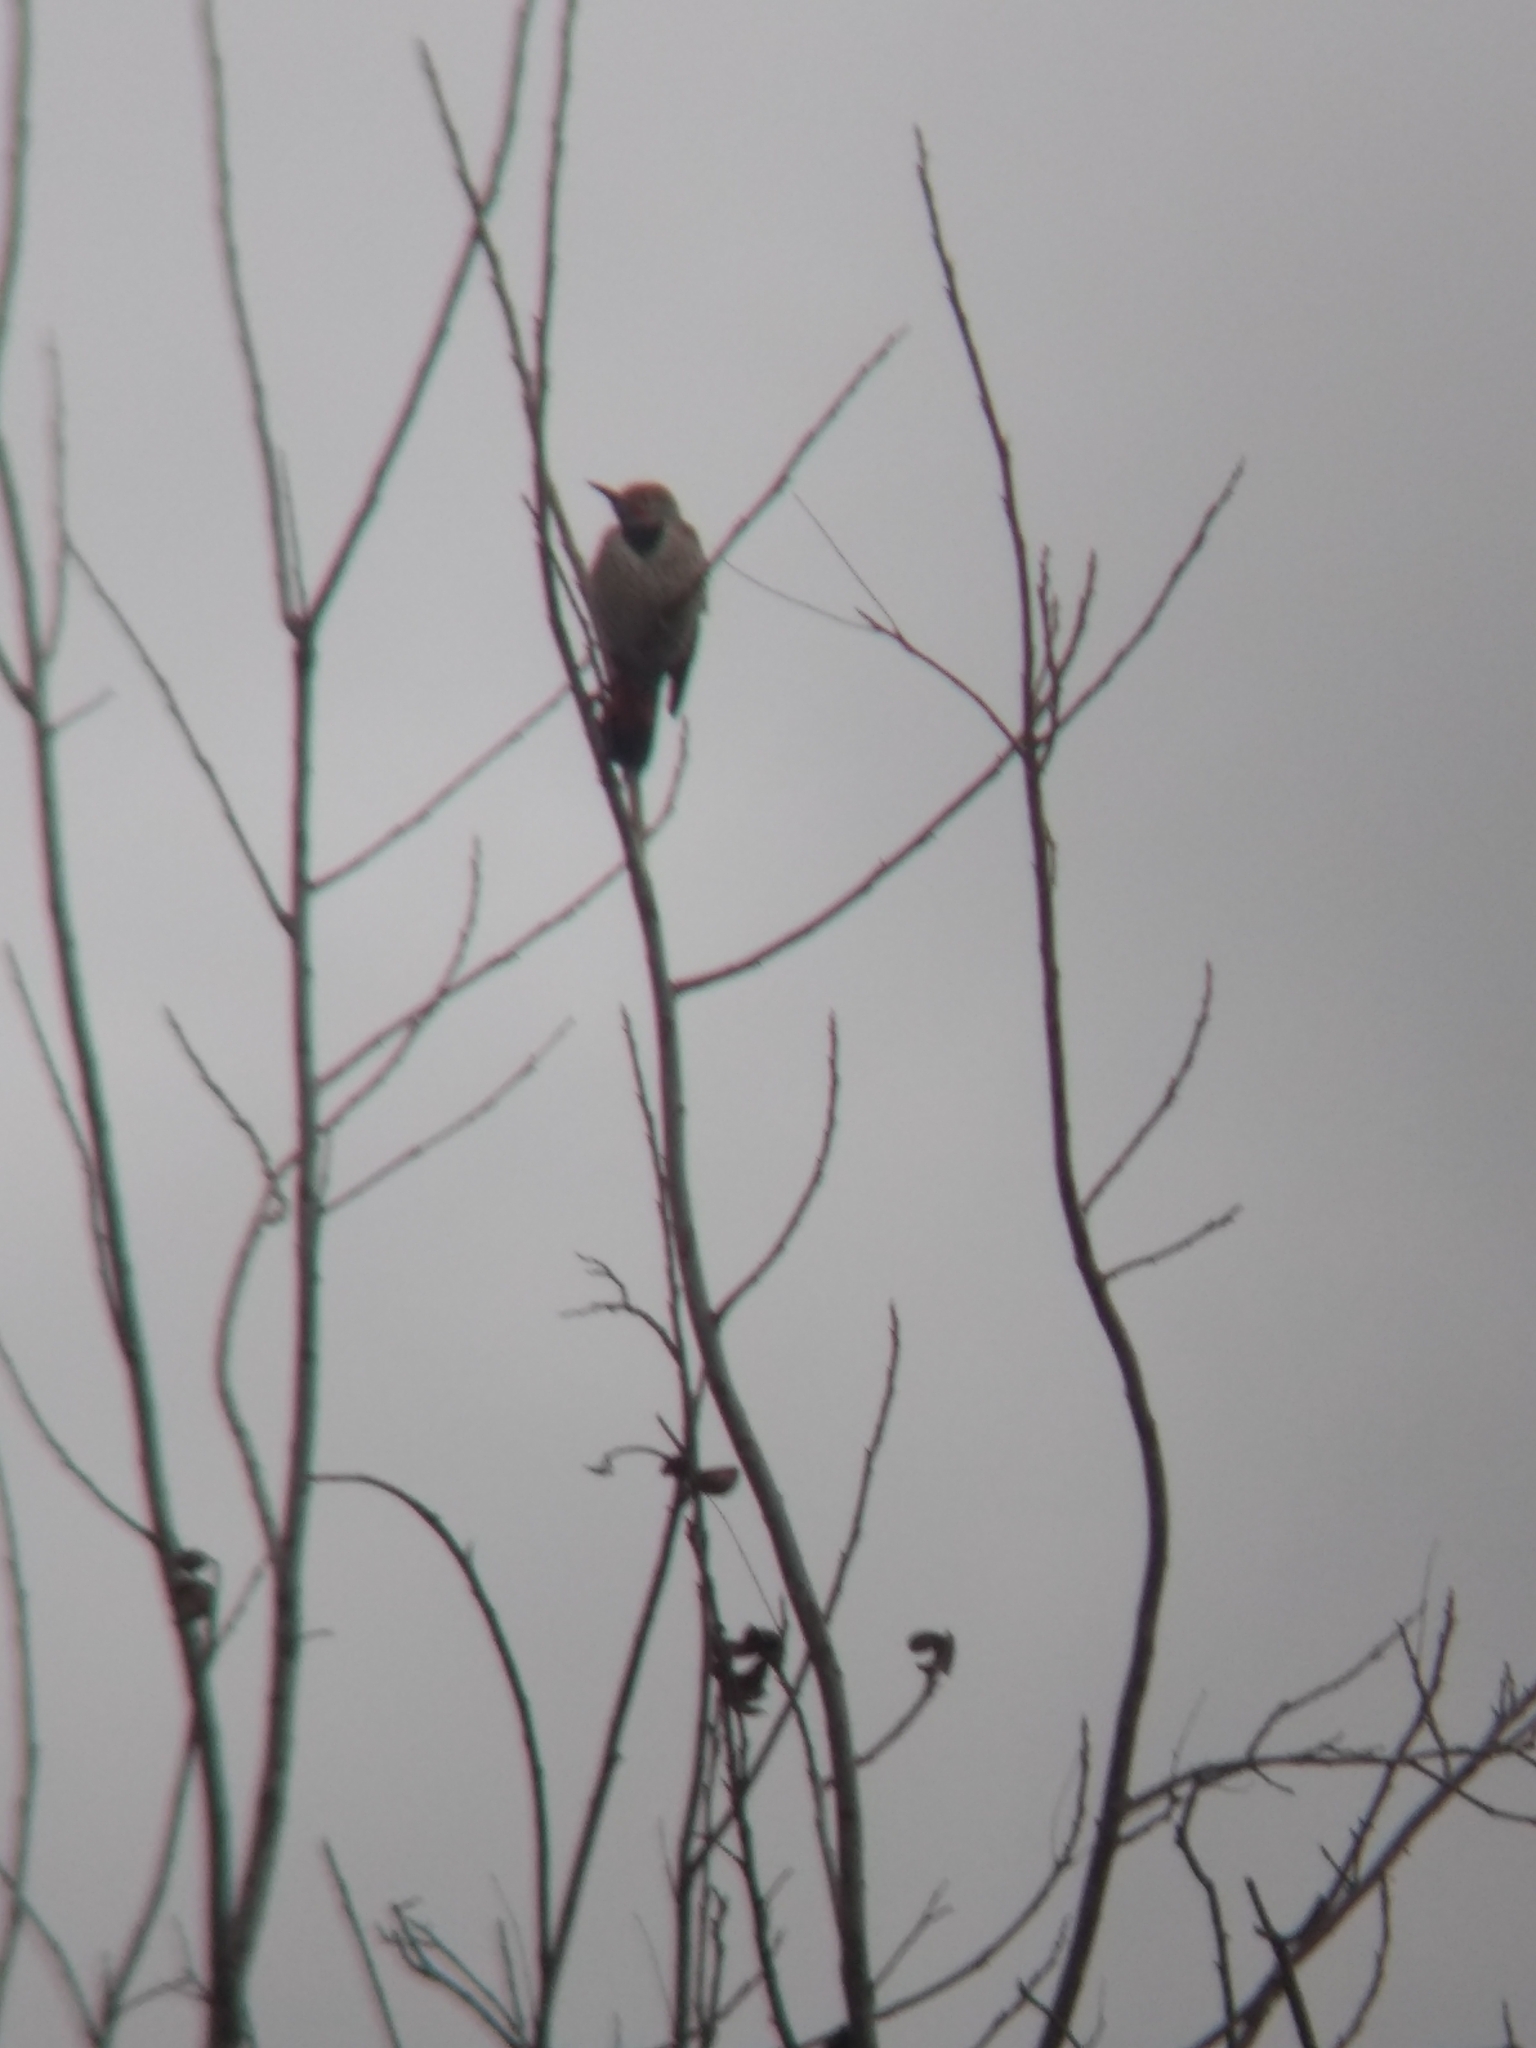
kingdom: Animalia
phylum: Chordata
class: Aves
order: Piciformes
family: Picidae
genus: Colaptes
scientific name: Colaptes auratus
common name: Northern flicker
